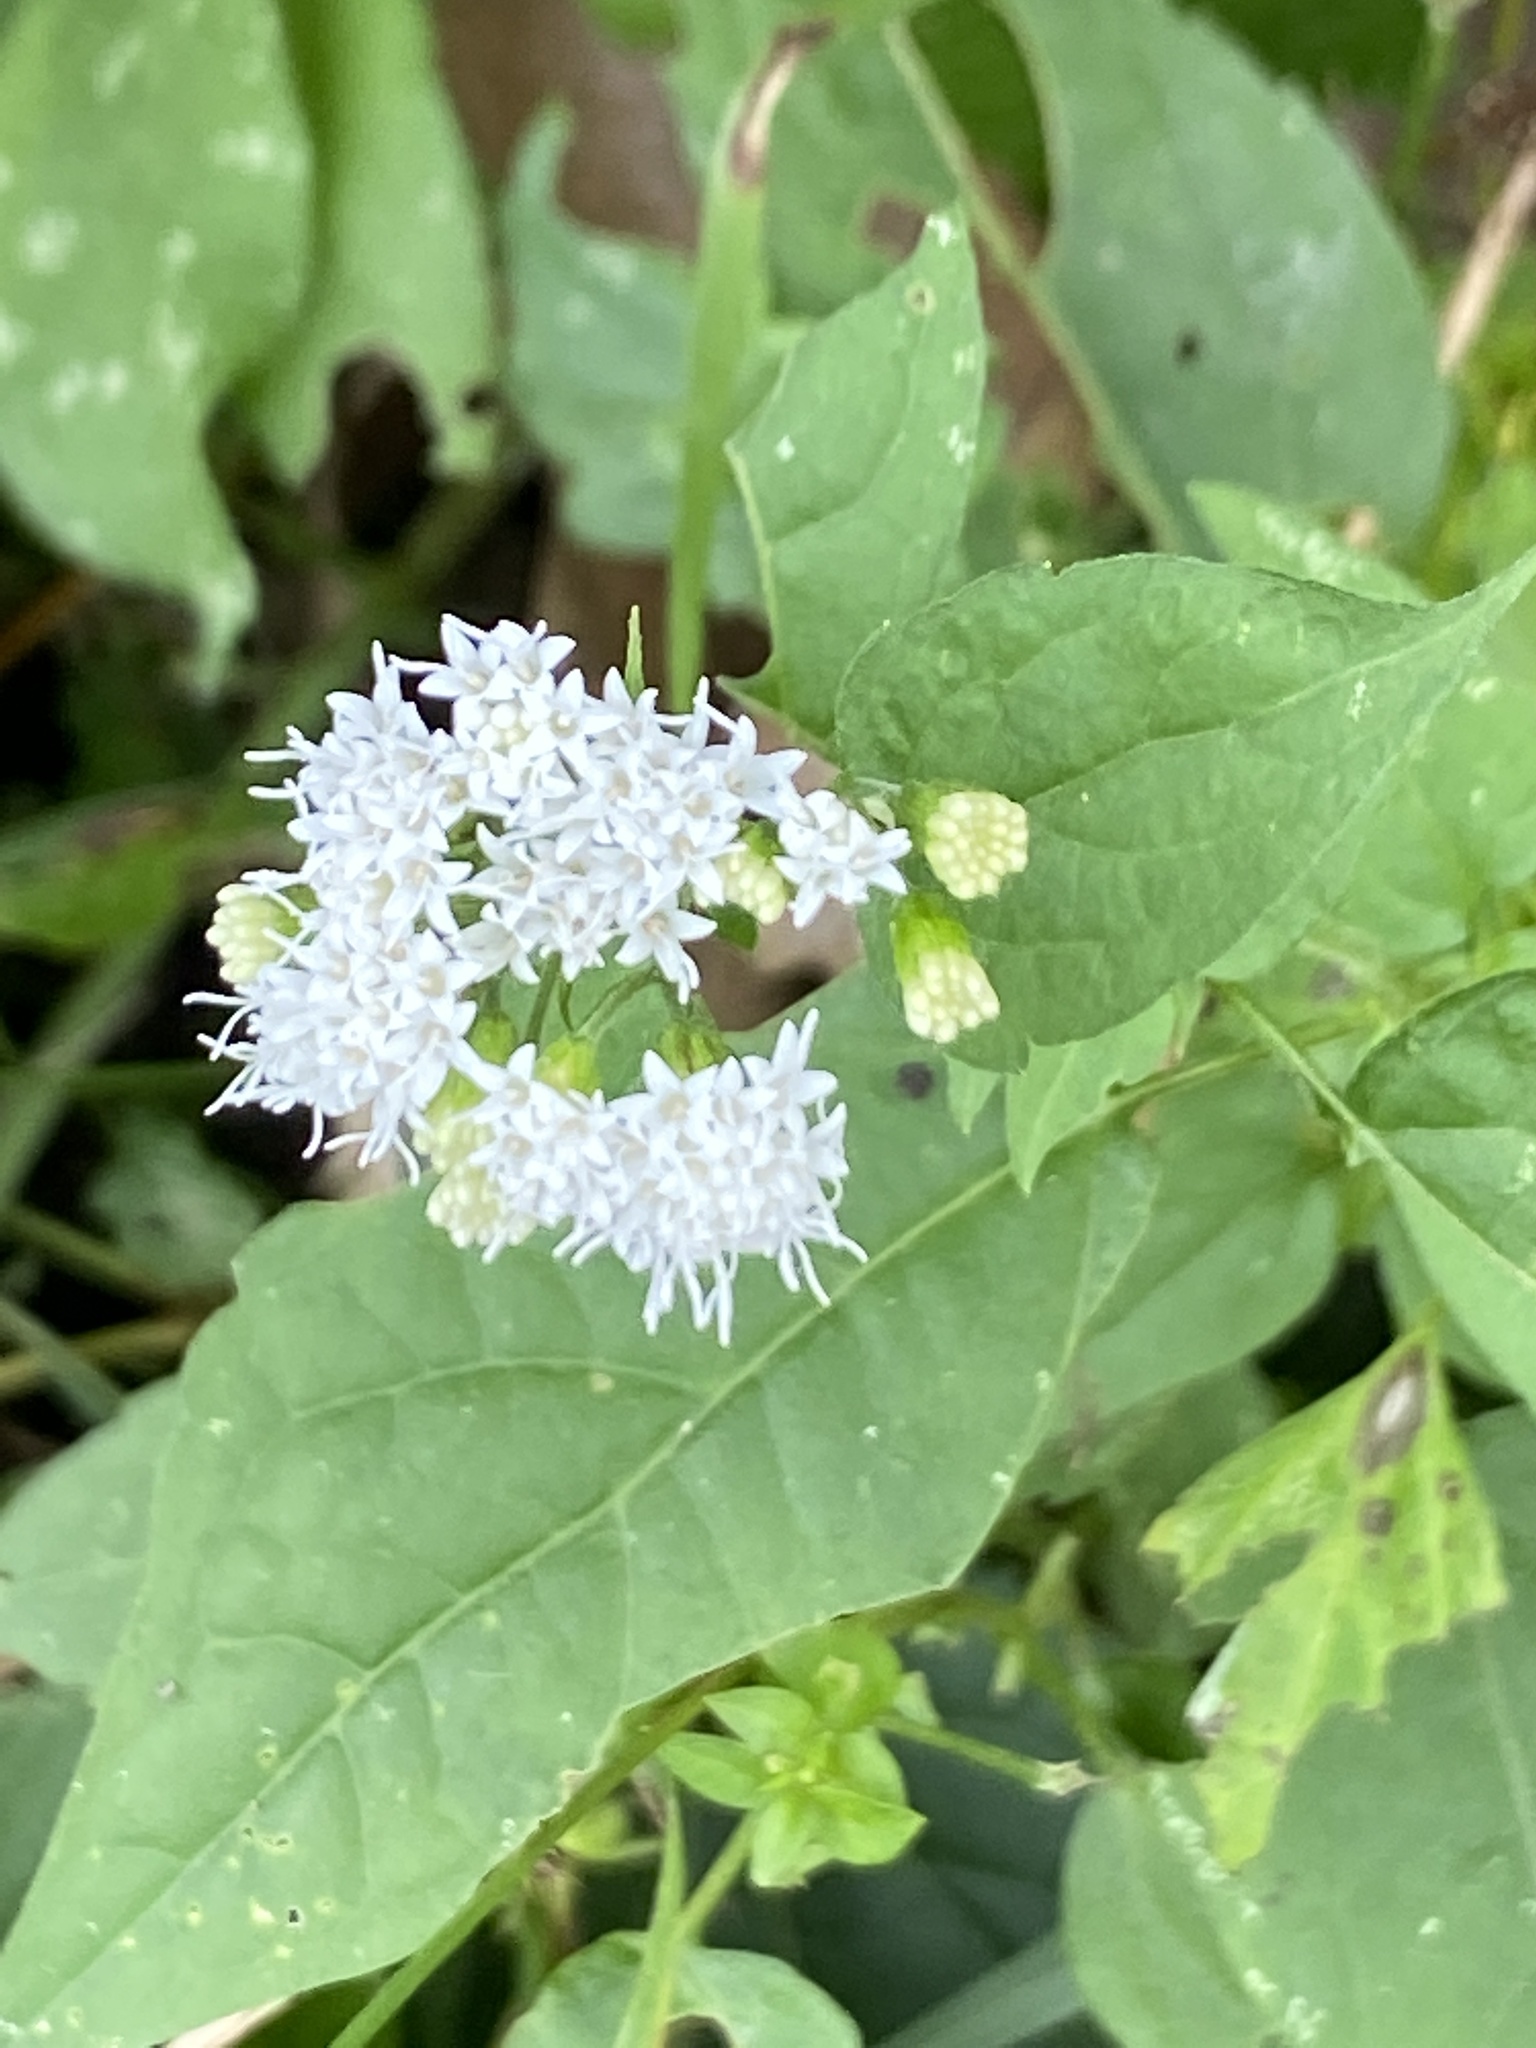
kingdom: Plantae
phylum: Tracheophyta
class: Magnoliopsida
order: Asterales
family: Asteraceae
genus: Ageratina
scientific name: Ageratina altissima
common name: White snakeroot
